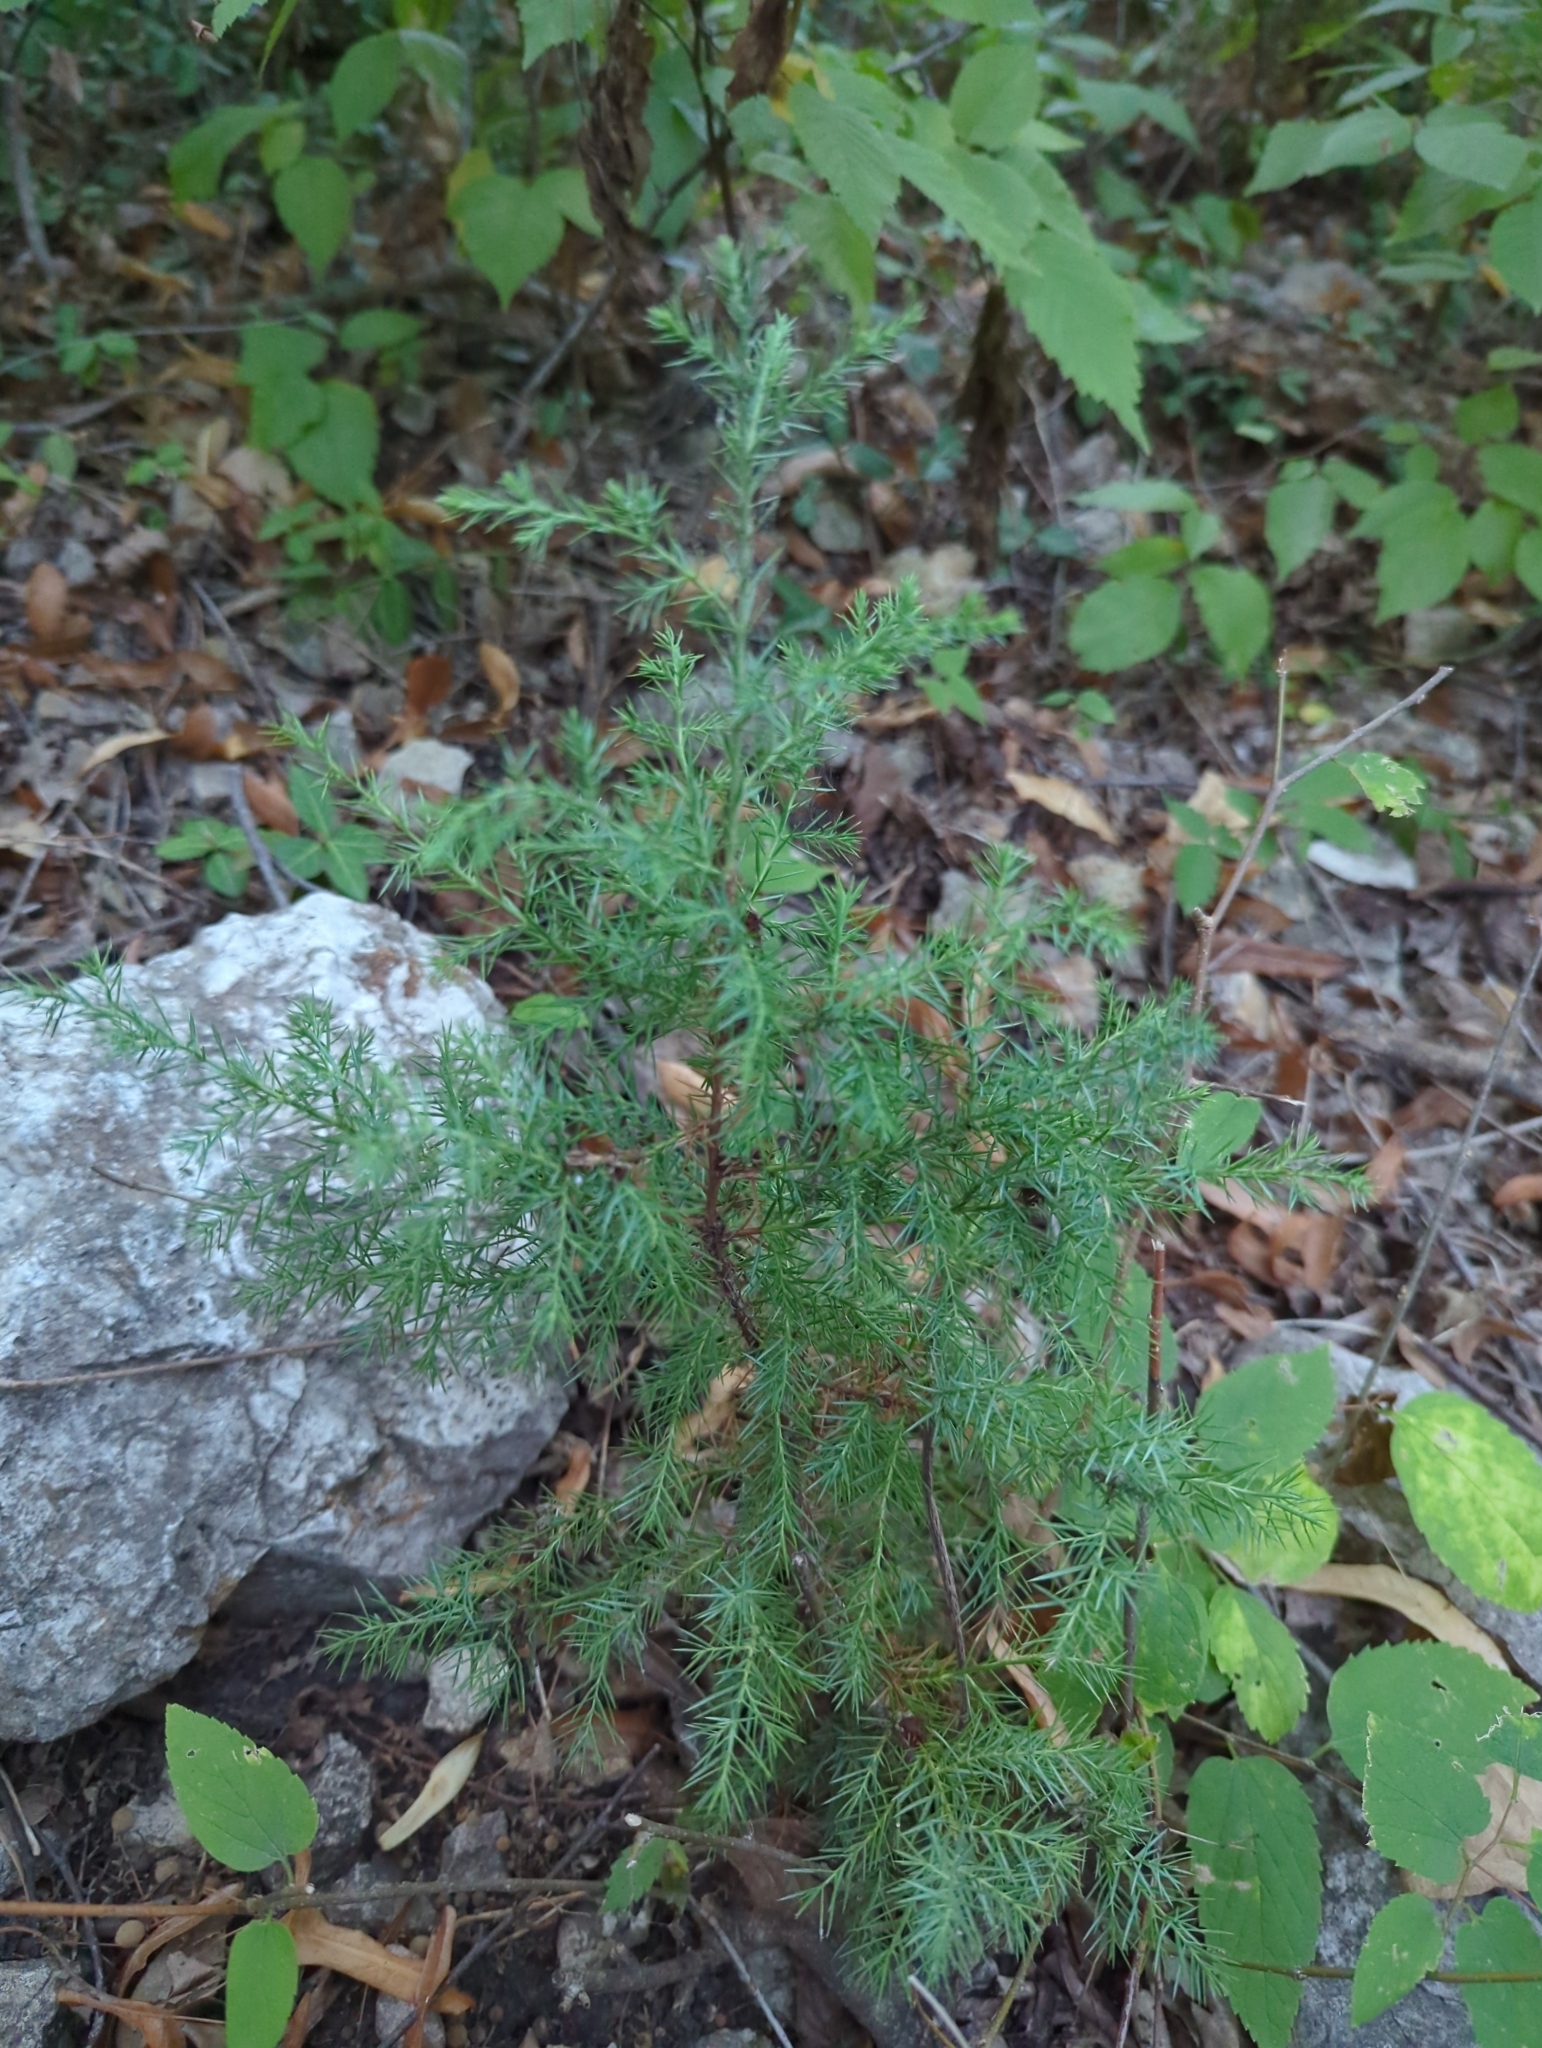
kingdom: Plantae
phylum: Tracheophyta
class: Pinopsida
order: Pinales
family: Cupressaceae
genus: Juniperus
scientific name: Juniperus virginiana
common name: Red juniper
